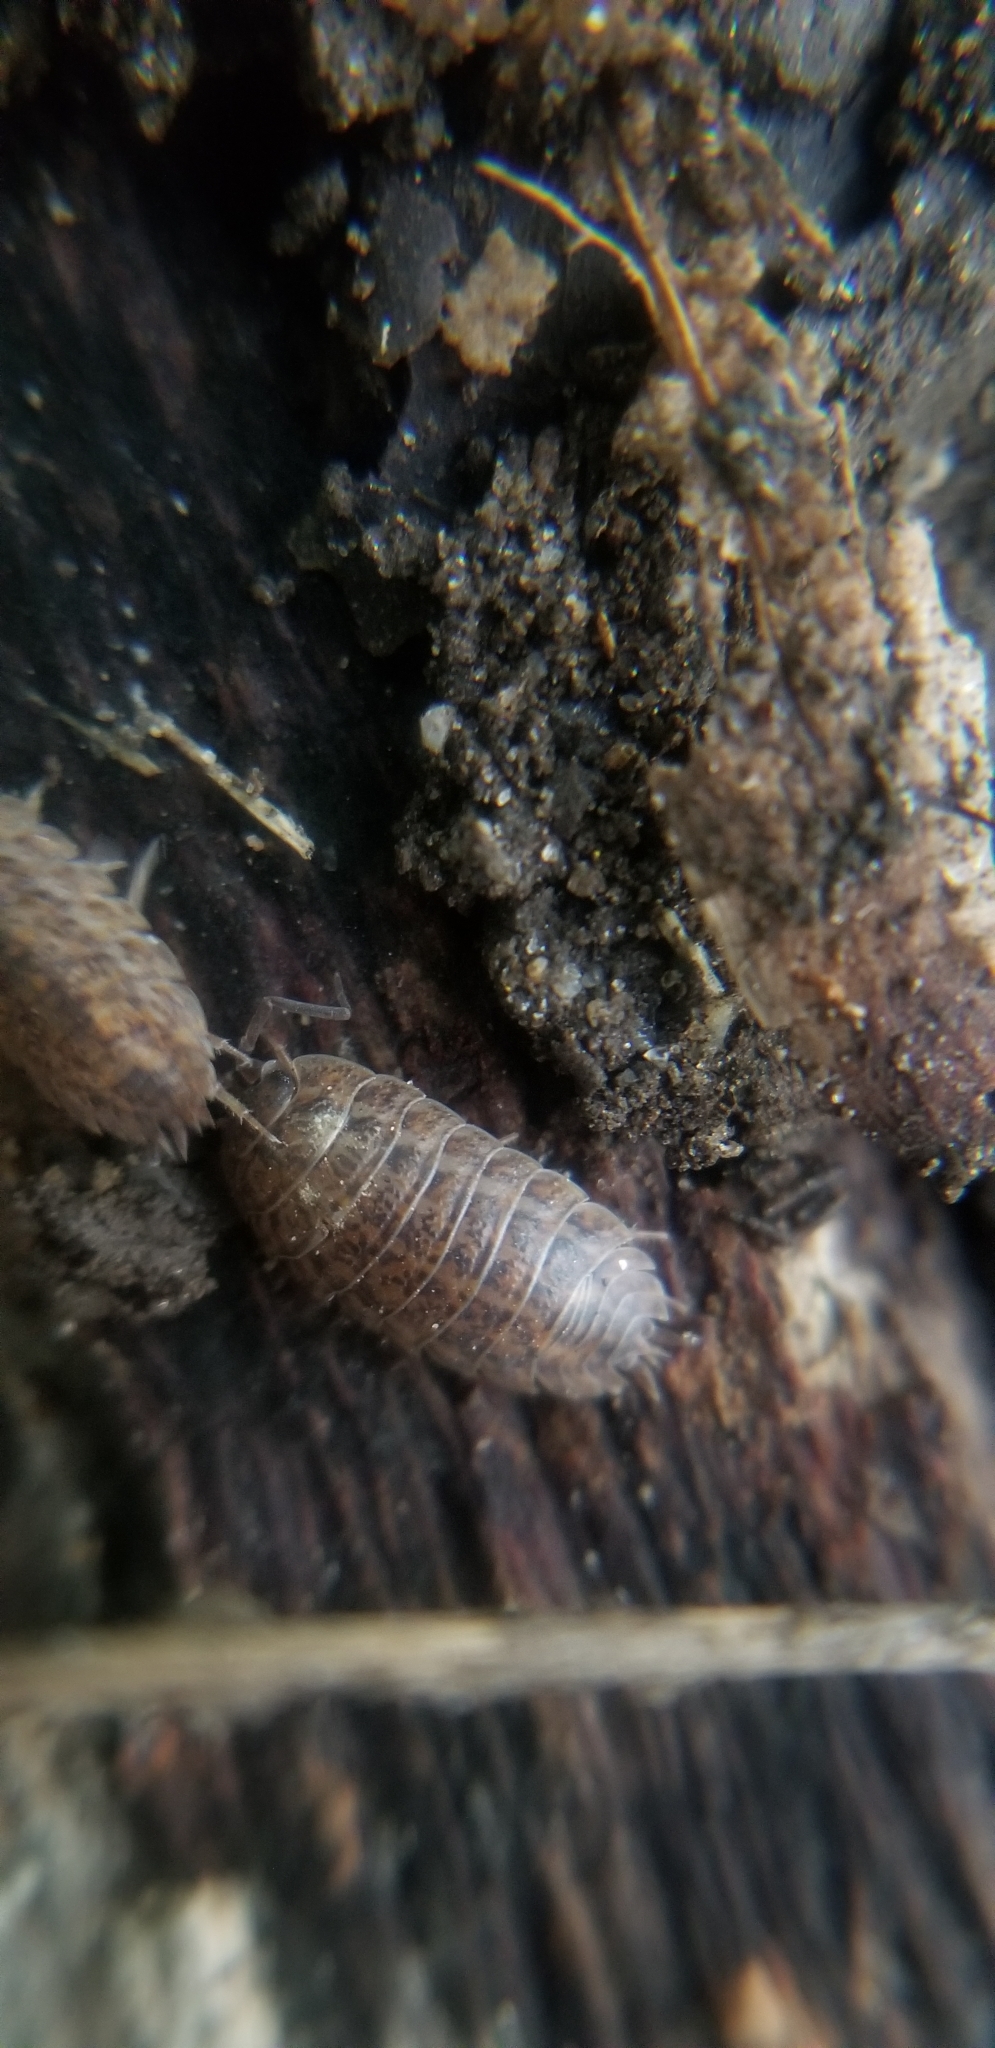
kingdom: Animalia
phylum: Arthropoda
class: Malacostraca
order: Isopoda
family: Trachelipodidae
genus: Trachelipus
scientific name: Trachelipus rathkii
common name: Isopod
